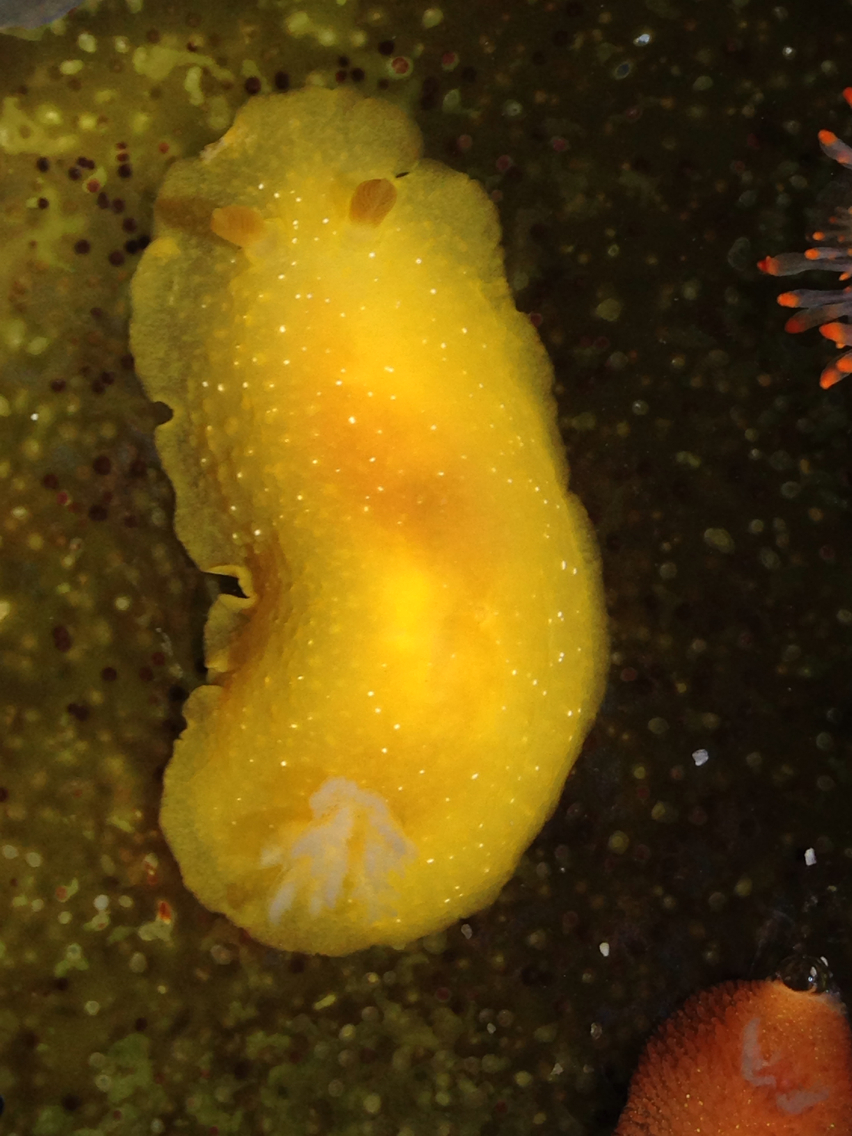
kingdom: Animalia
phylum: Mollusca
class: Gastropoda
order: Nudibranchia
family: Dendrodorididae
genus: Doriopsilla
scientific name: Doriopsilla fulva
